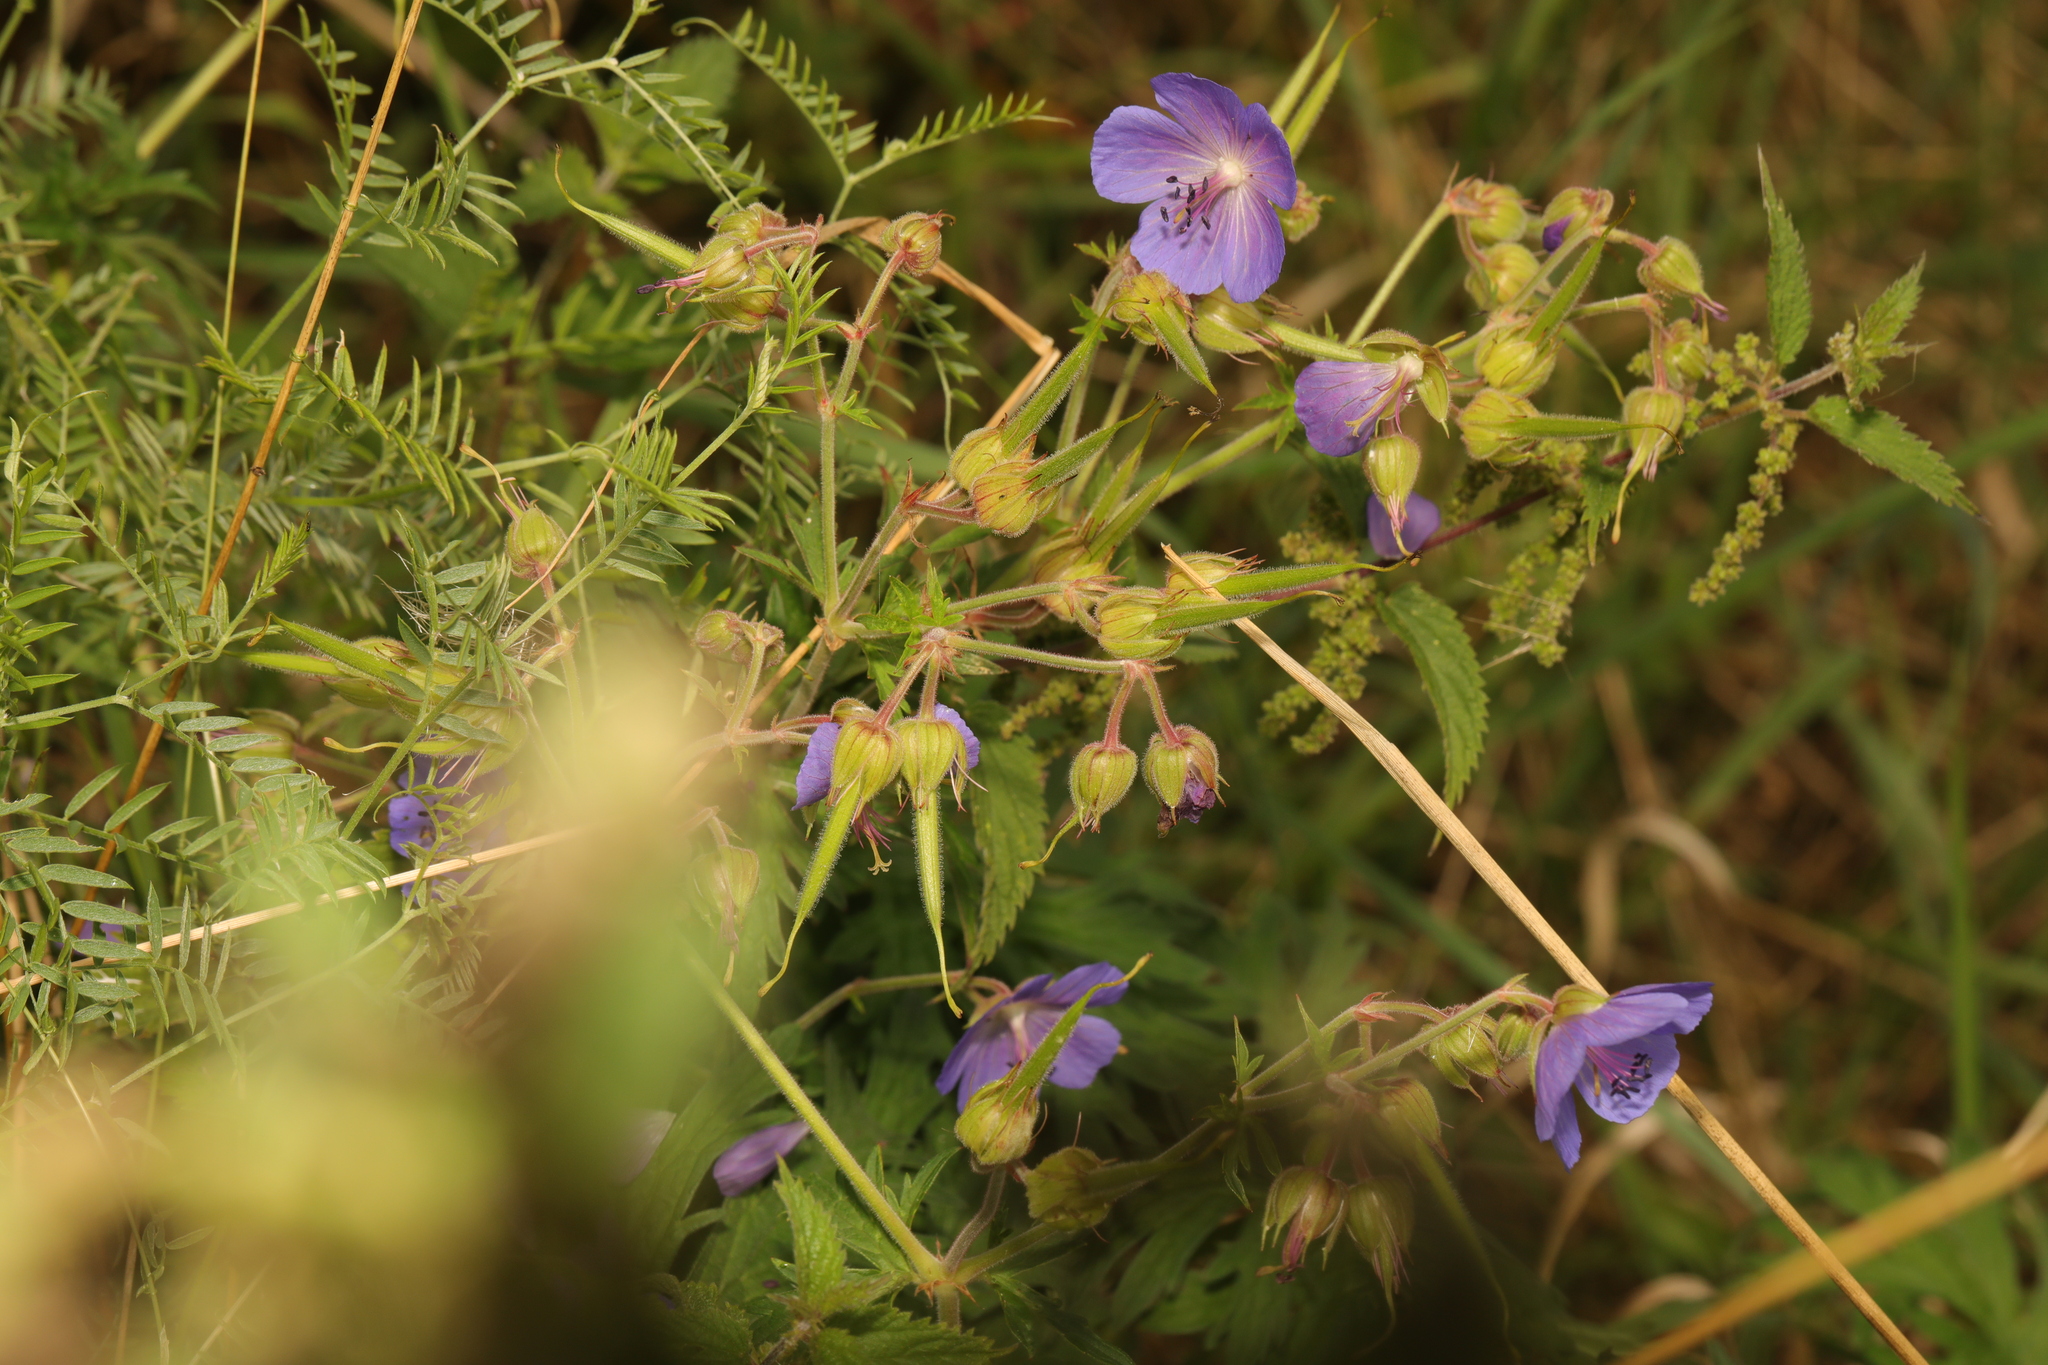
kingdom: Plantae
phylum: Tracheophyta
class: Magnoliopsida
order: Geraniales
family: Geraniaceae
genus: Geranium
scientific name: Geranium pratense
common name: Meadow crane's-bill
